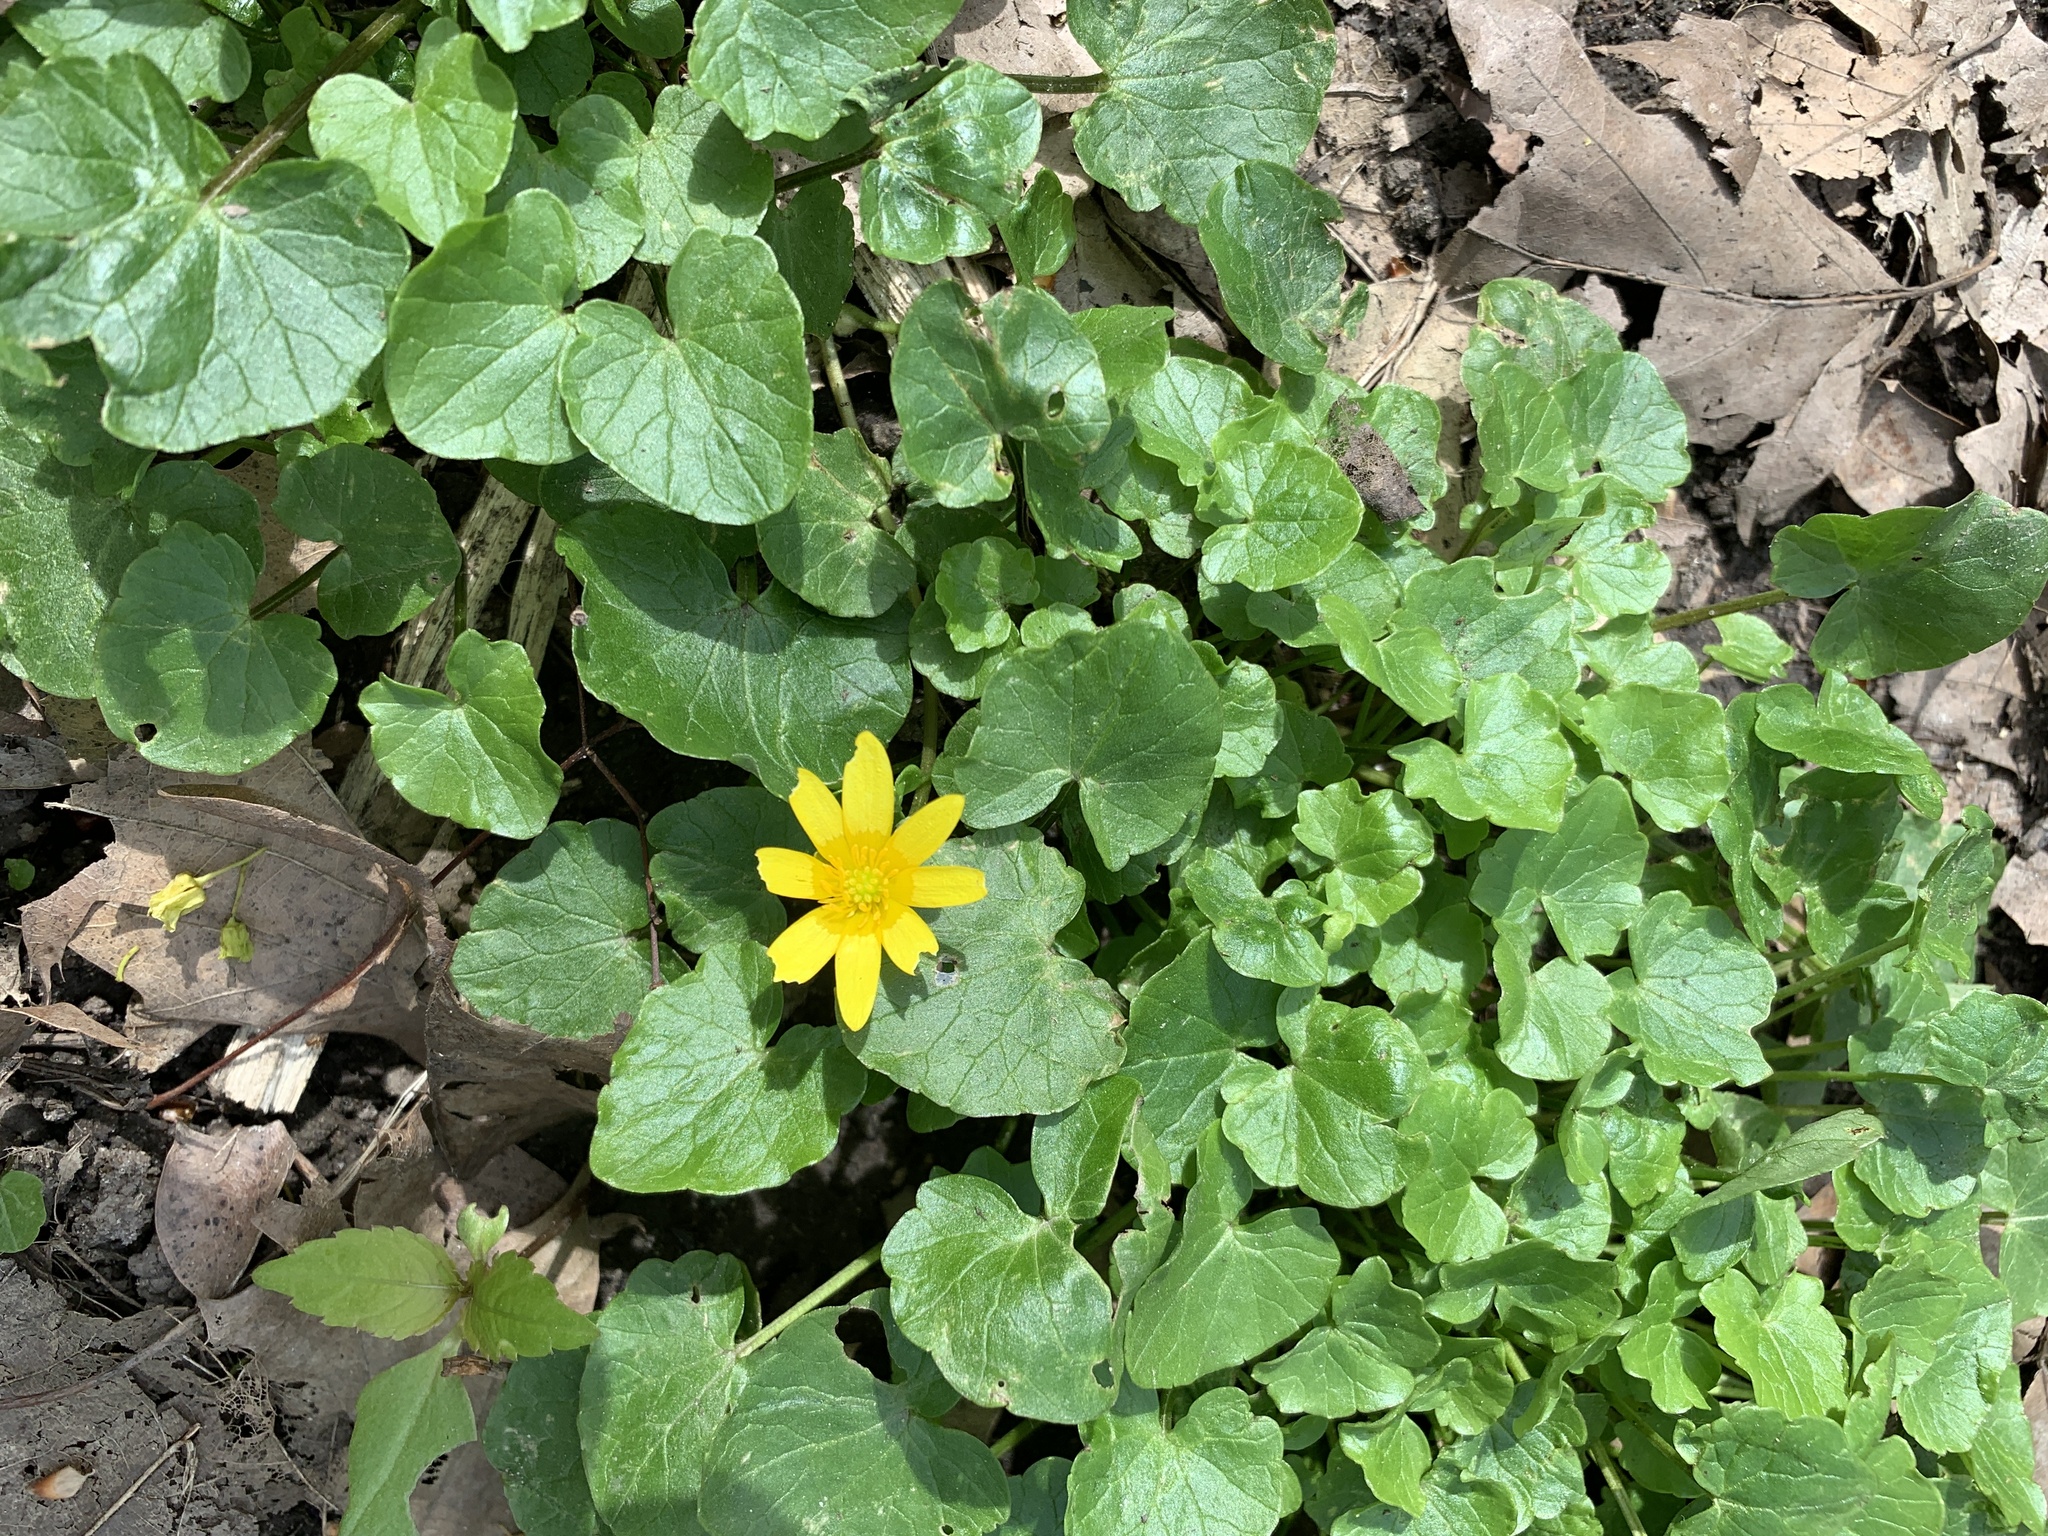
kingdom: Plantae
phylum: Tracheophyta
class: Magnoliopsida
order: Ranunculales
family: Ranunculaceae
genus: Ficaria
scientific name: Ficaria verna
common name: Lesser celandine
